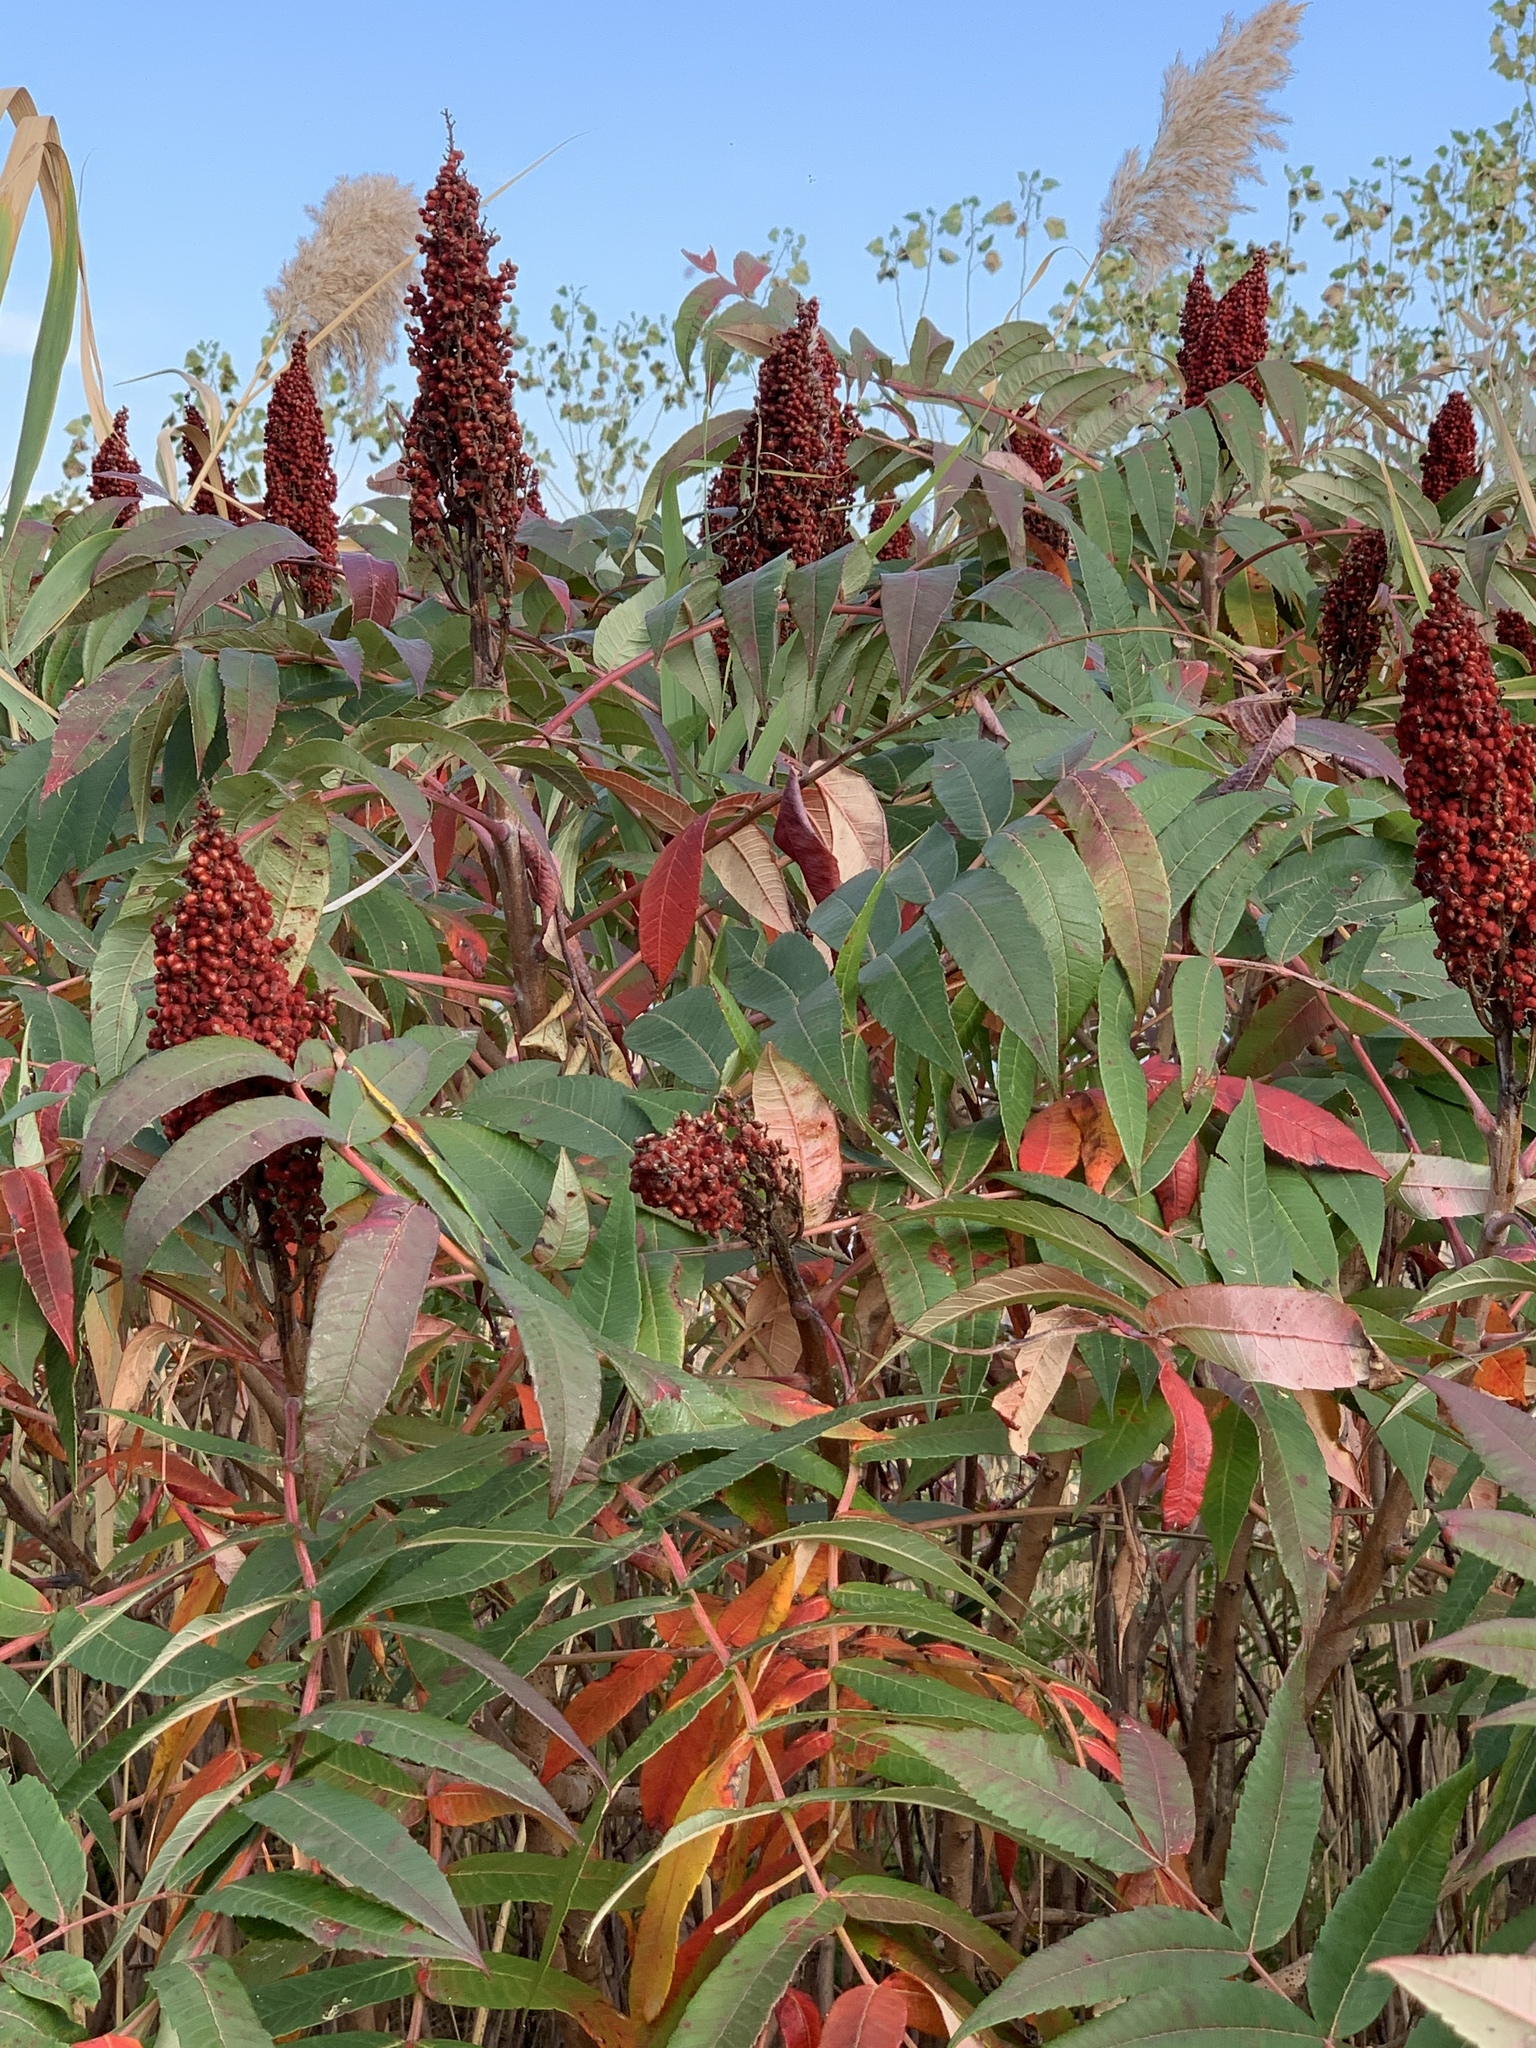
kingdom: Plantae
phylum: Tracheophyta
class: Magnoliopsida
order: Sapindales
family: Anacardiaceae
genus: Rhus
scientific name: Rhus glabra
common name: Scarlet sumac
